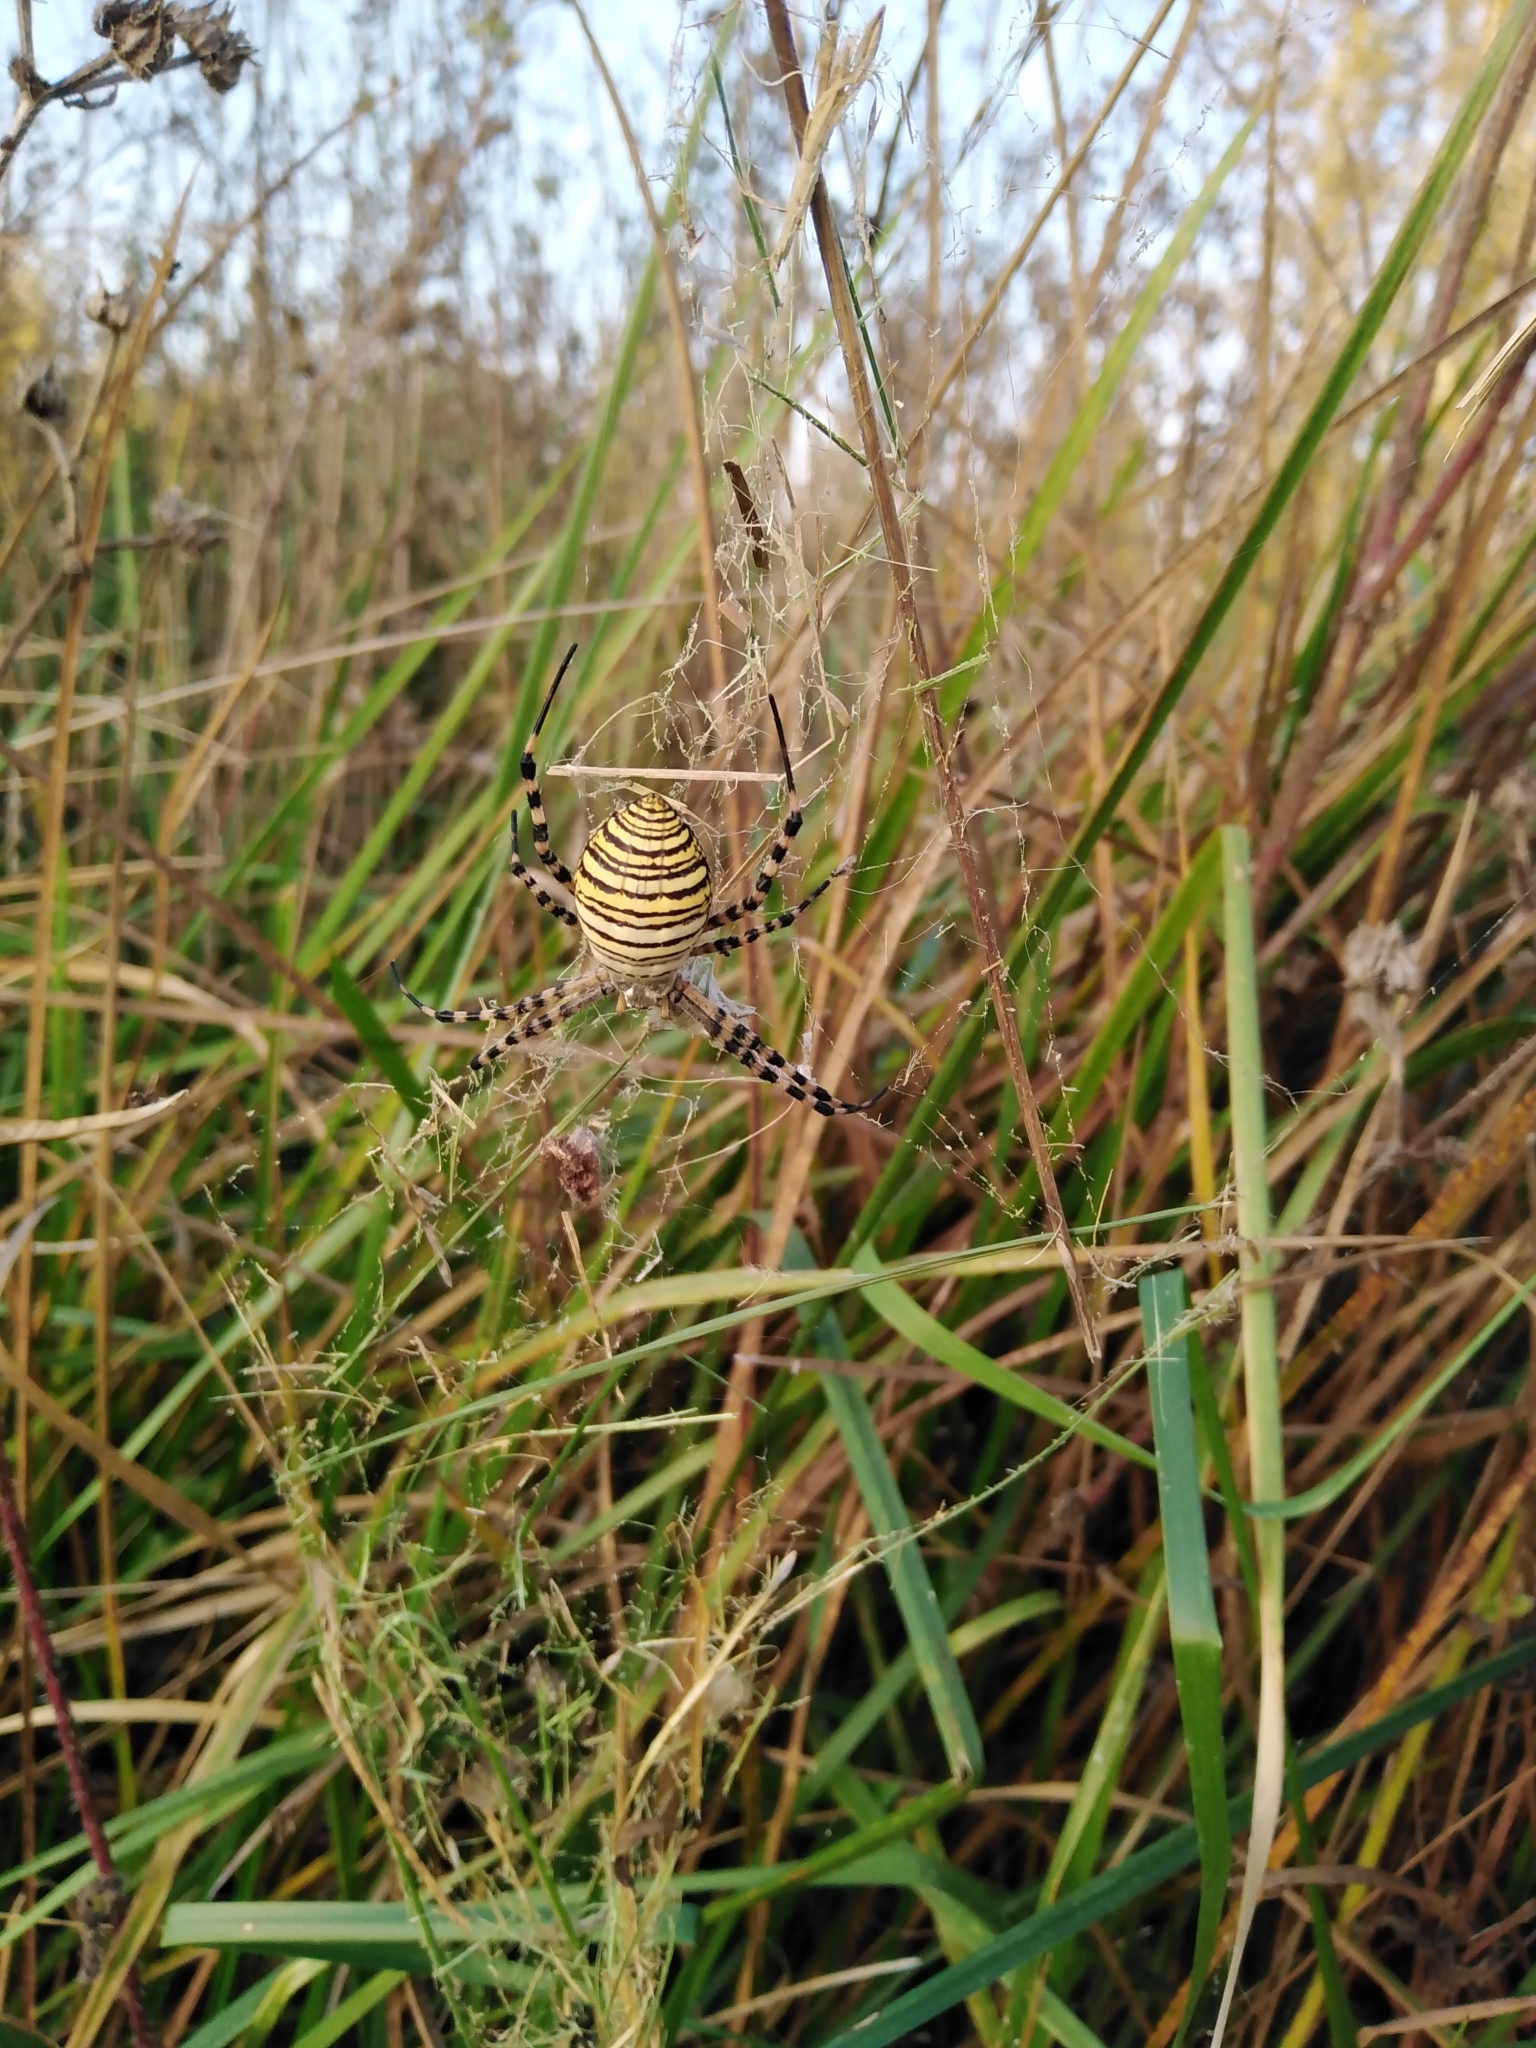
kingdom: Animalia
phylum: Arthropoda
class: Arachnida
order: Araneae
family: Araneidae
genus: Argiope
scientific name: Argiope trifasciata
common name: Banded garden spider
